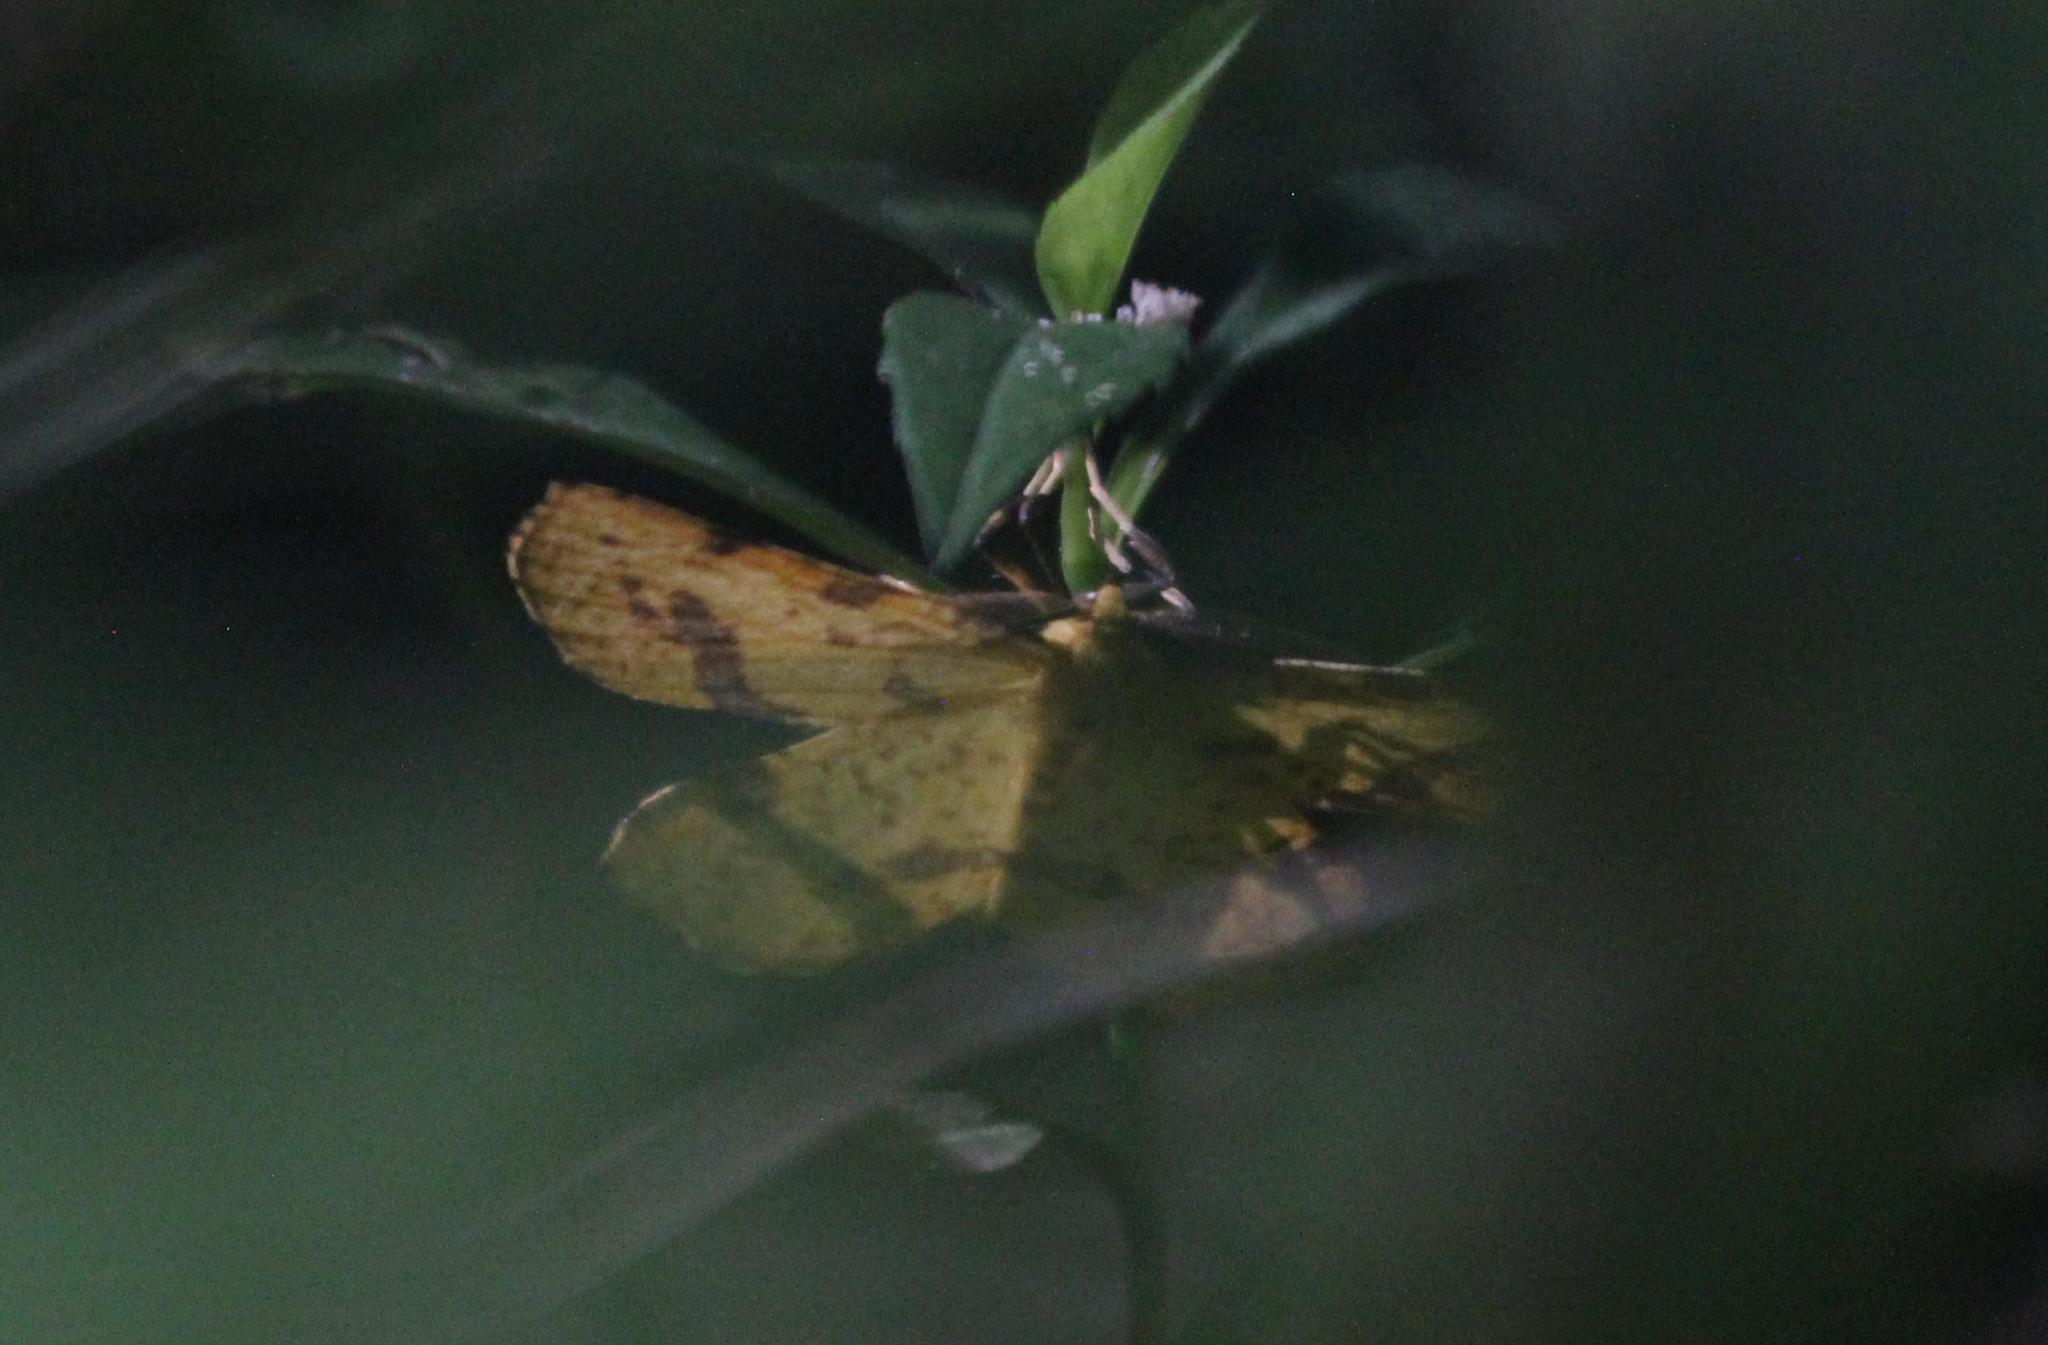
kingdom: Animalia
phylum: Arthropoda
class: Insecta
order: Lepidoptera
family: Geometridae
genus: Xanthotype
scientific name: Xanthotype
